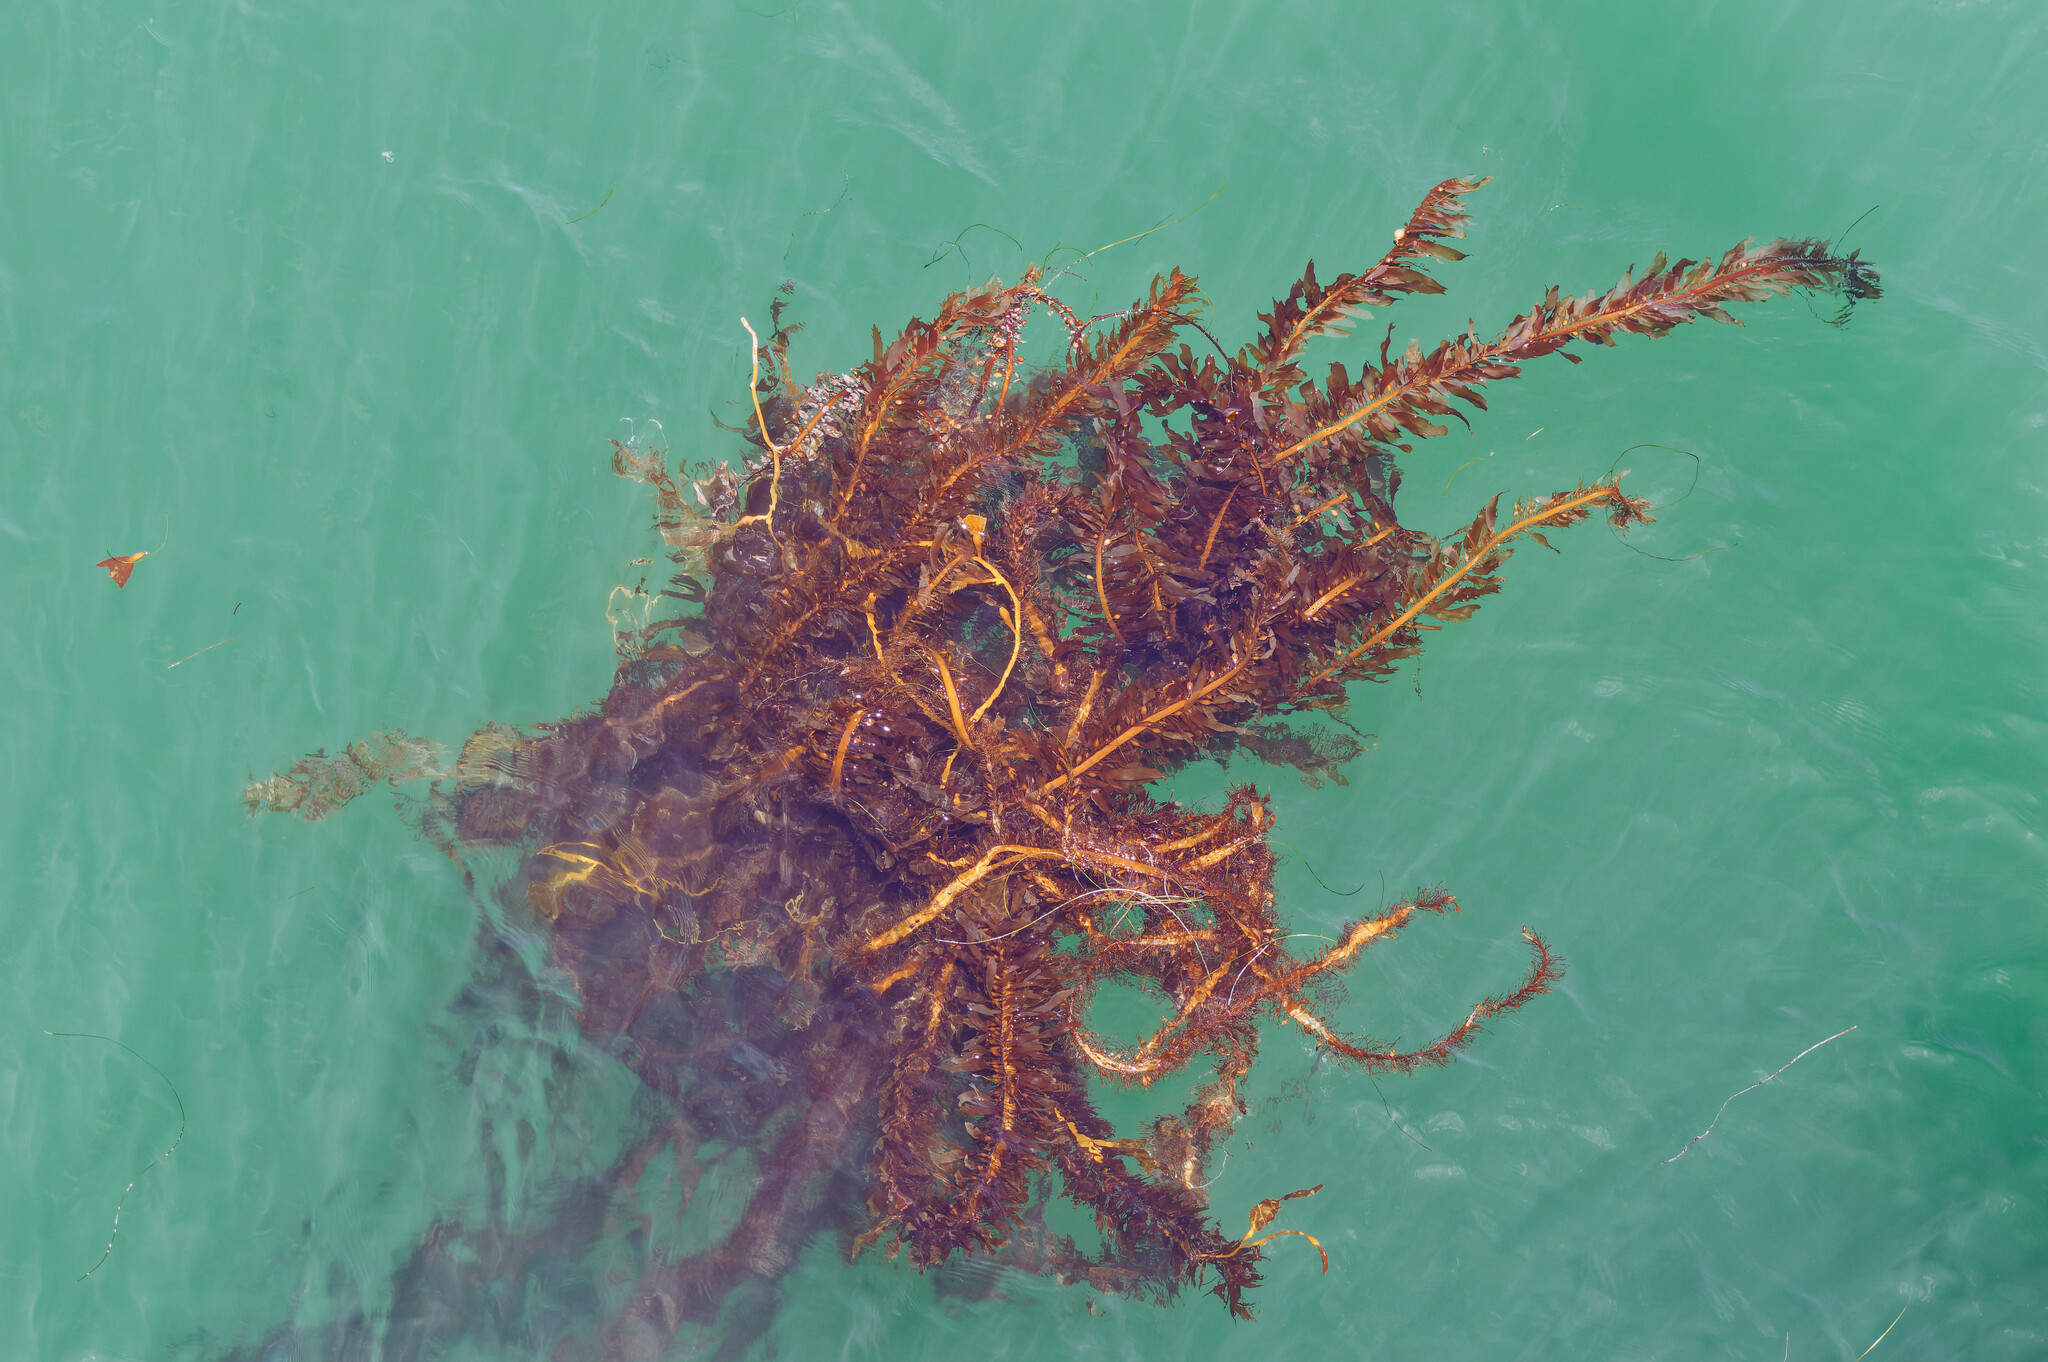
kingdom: Chromista
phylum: Ochrophyta
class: Phaeophyceae
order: Laminariales
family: Lessoniaceae
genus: Egregia
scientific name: Egregia menziesii
